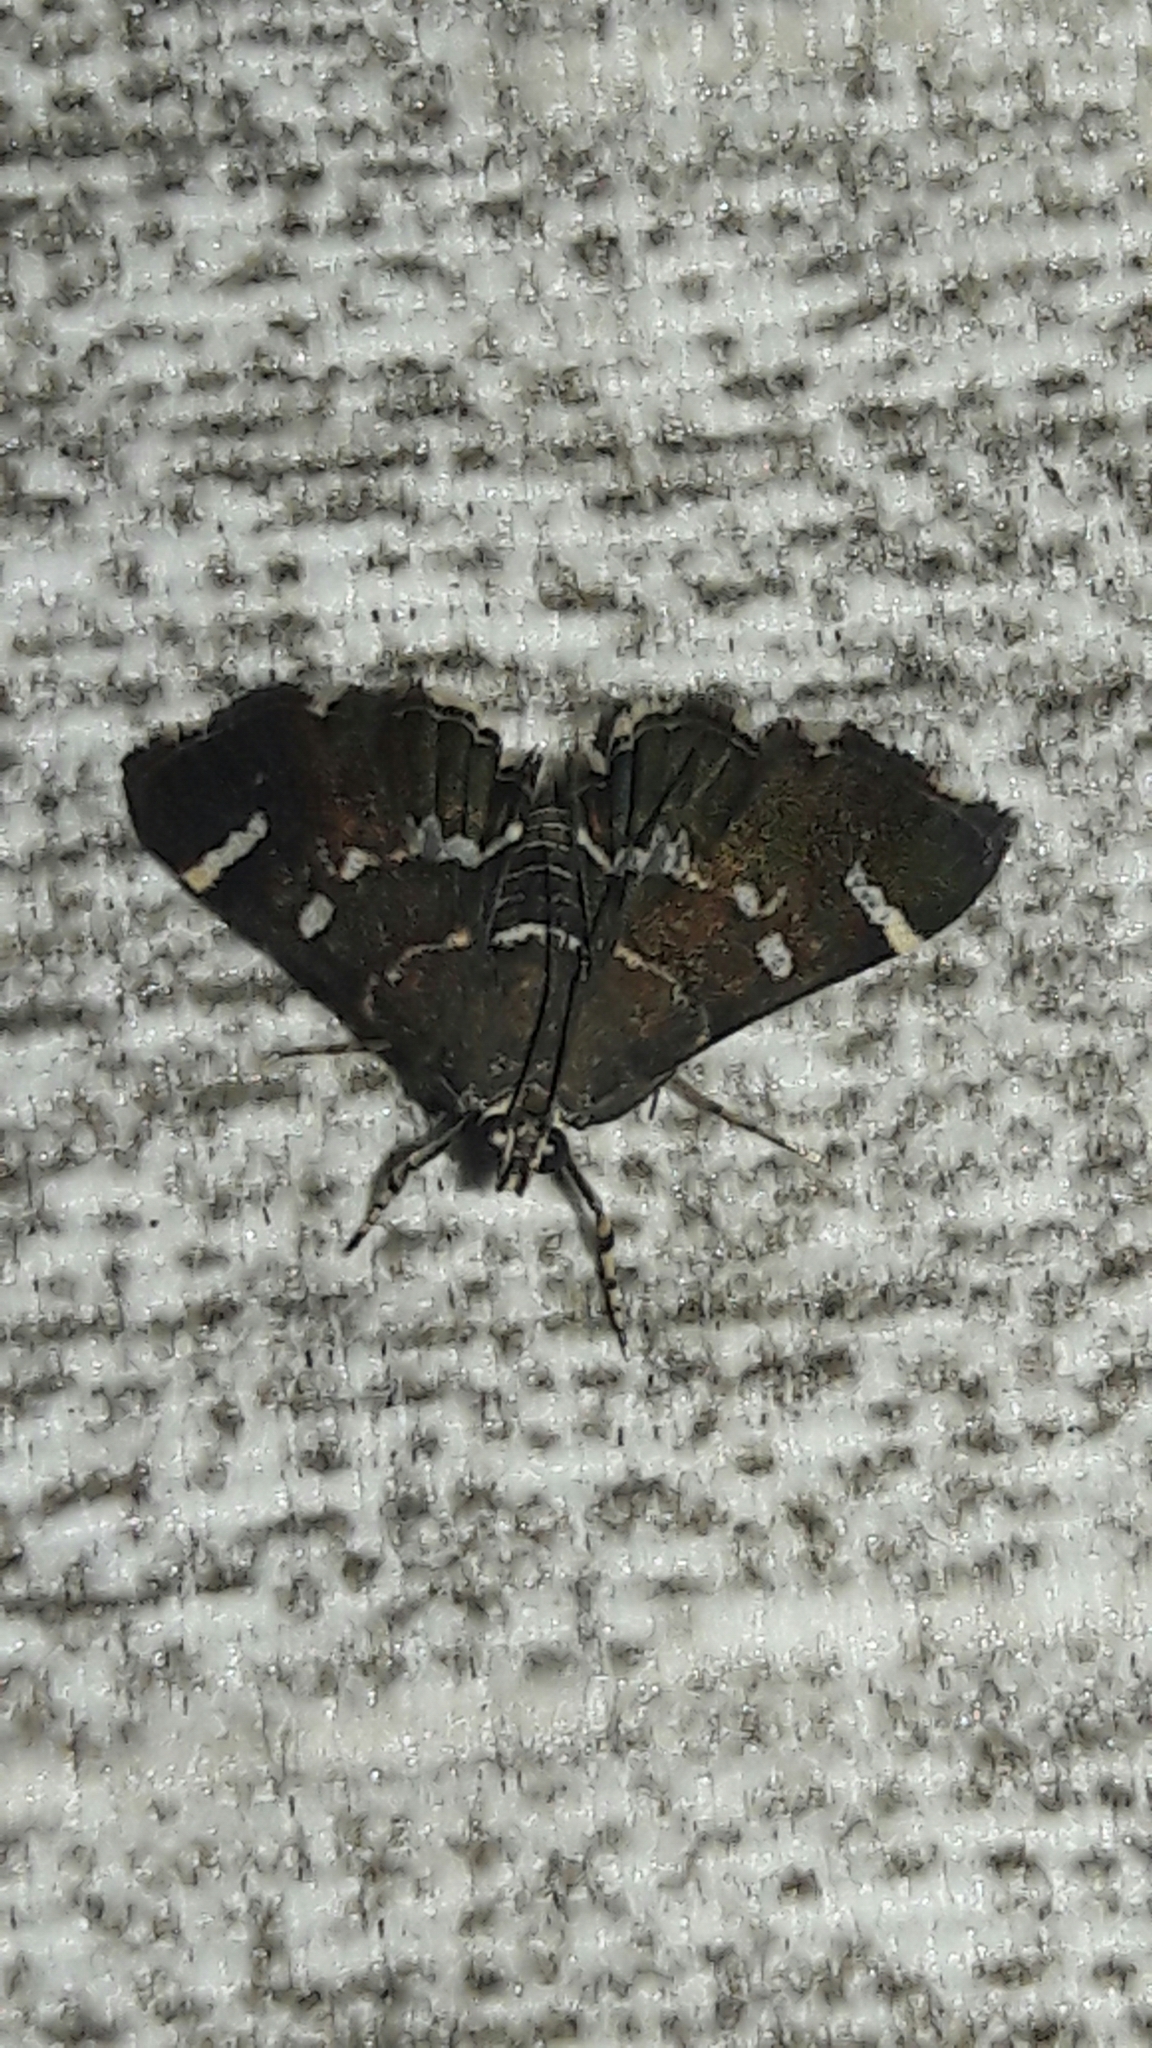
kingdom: Animalia
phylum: Arthropoda
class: Insecta
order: Lepidoptera
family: Crambidae
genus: Hymenia
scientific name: Hymenia perspectalis
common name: Spotted beet webworm
